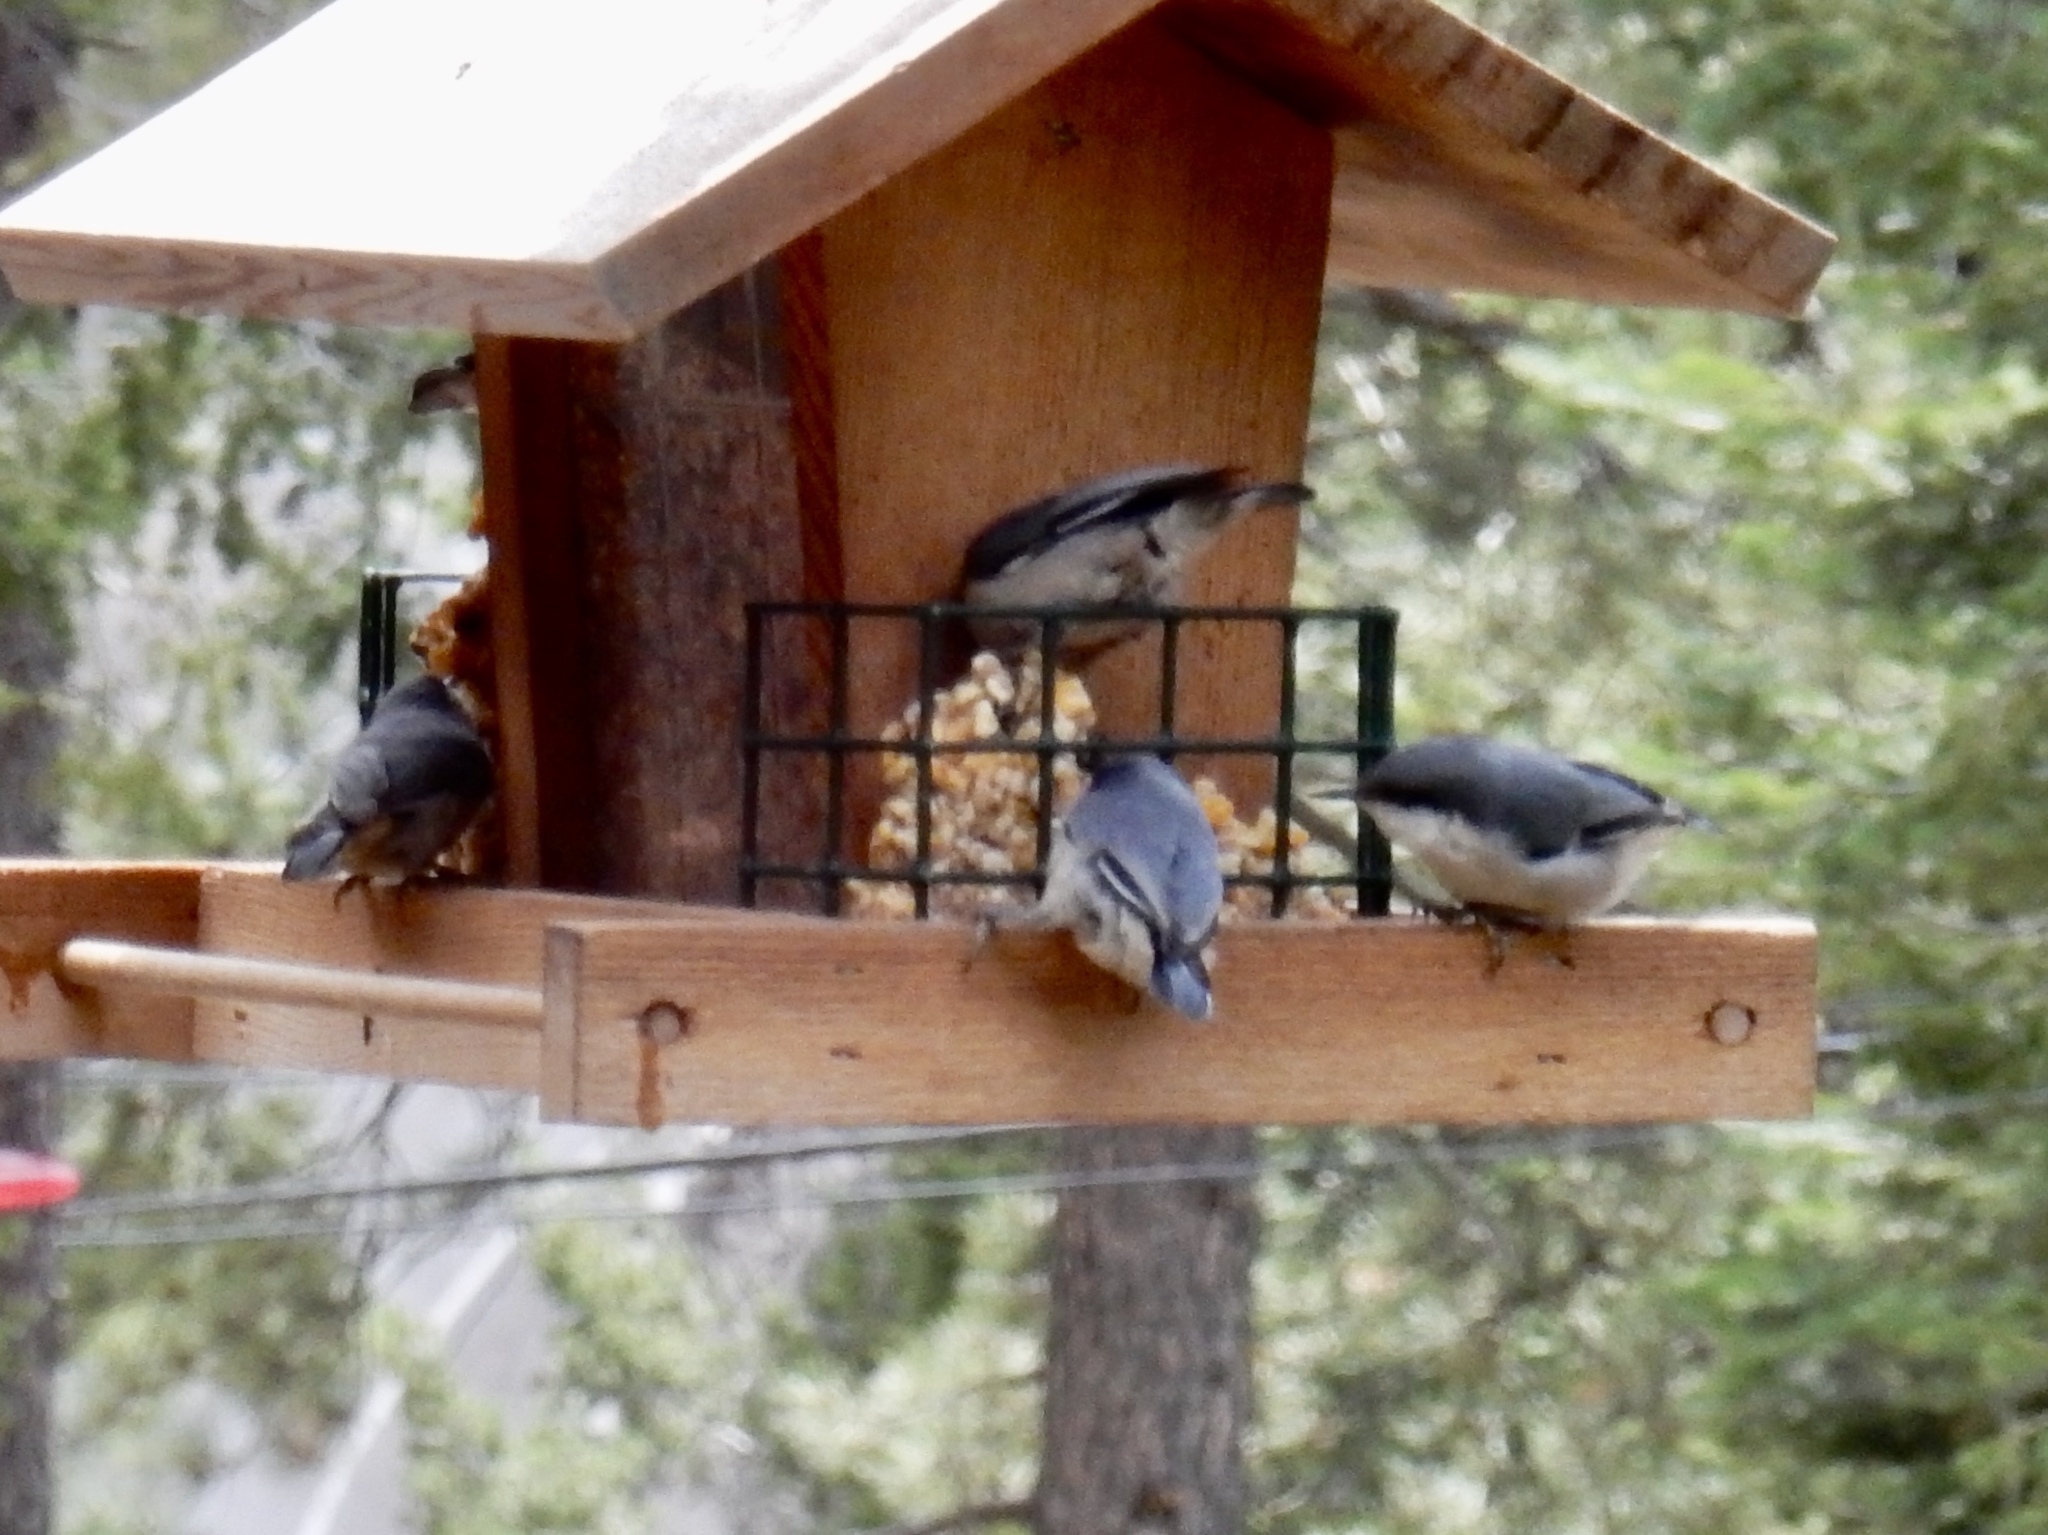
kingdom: Animalia
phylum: Chordata
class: Aves
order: Passeriformes
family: Sittidae
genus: Sitta
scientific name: Sitta pygmaea
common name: Pygmy nuthatch
